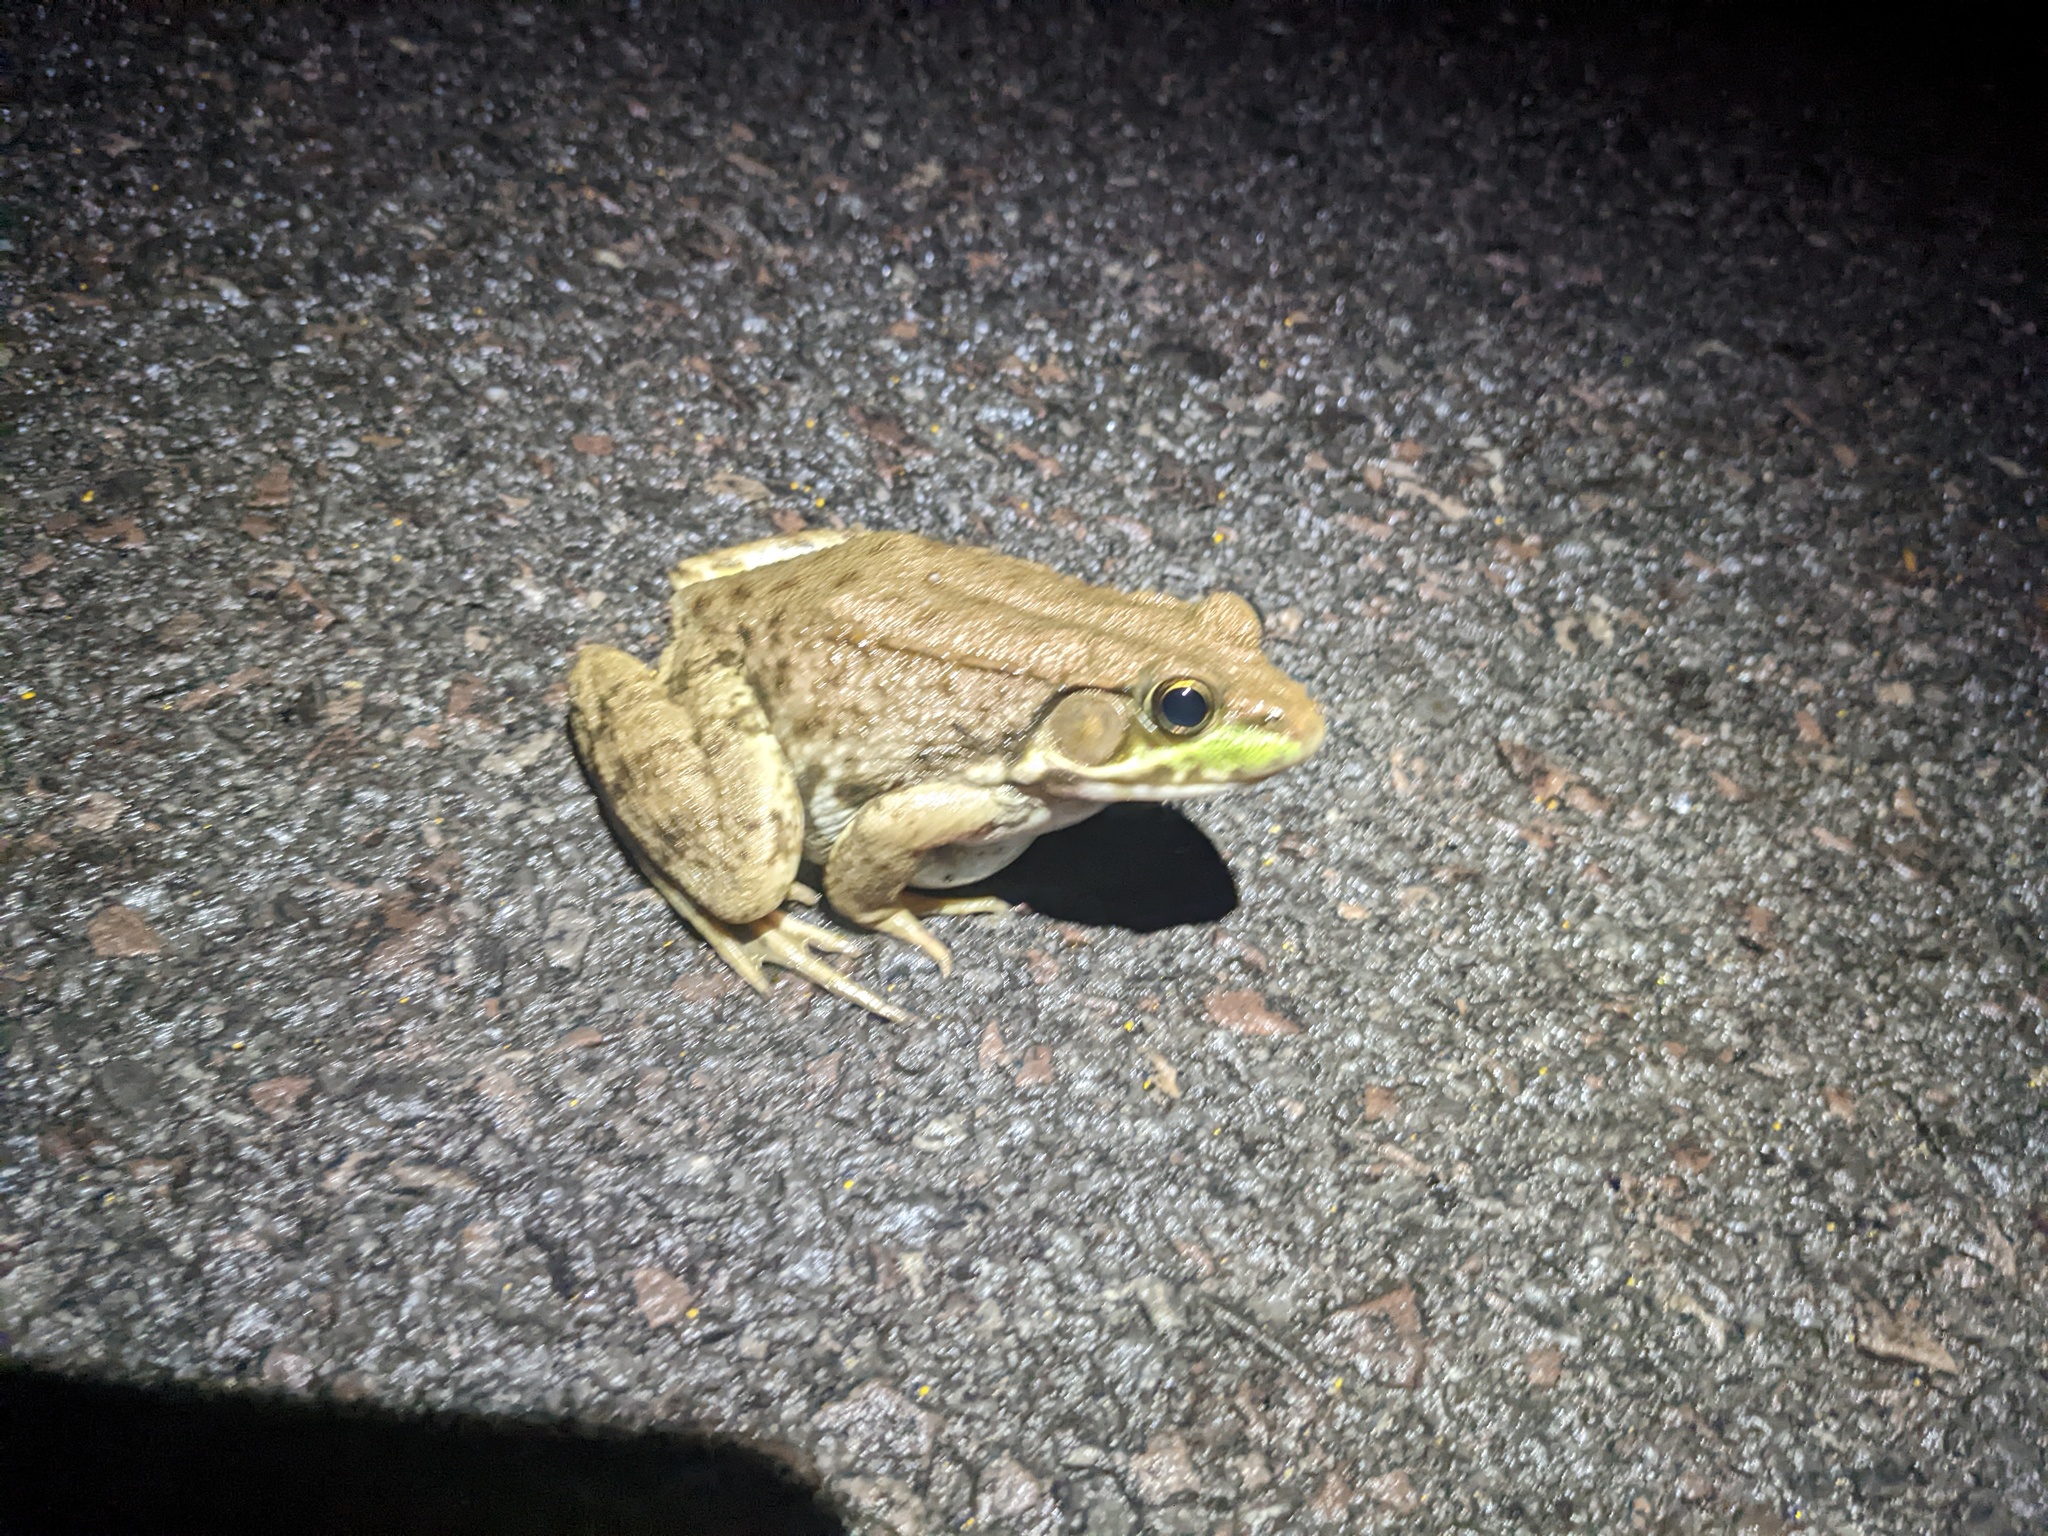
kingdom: Animalia
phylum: Chordata
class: Amphibia
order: Anura
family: Ranidae
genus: Lithobates
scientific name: Lithobates clamitans
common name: Green frog
